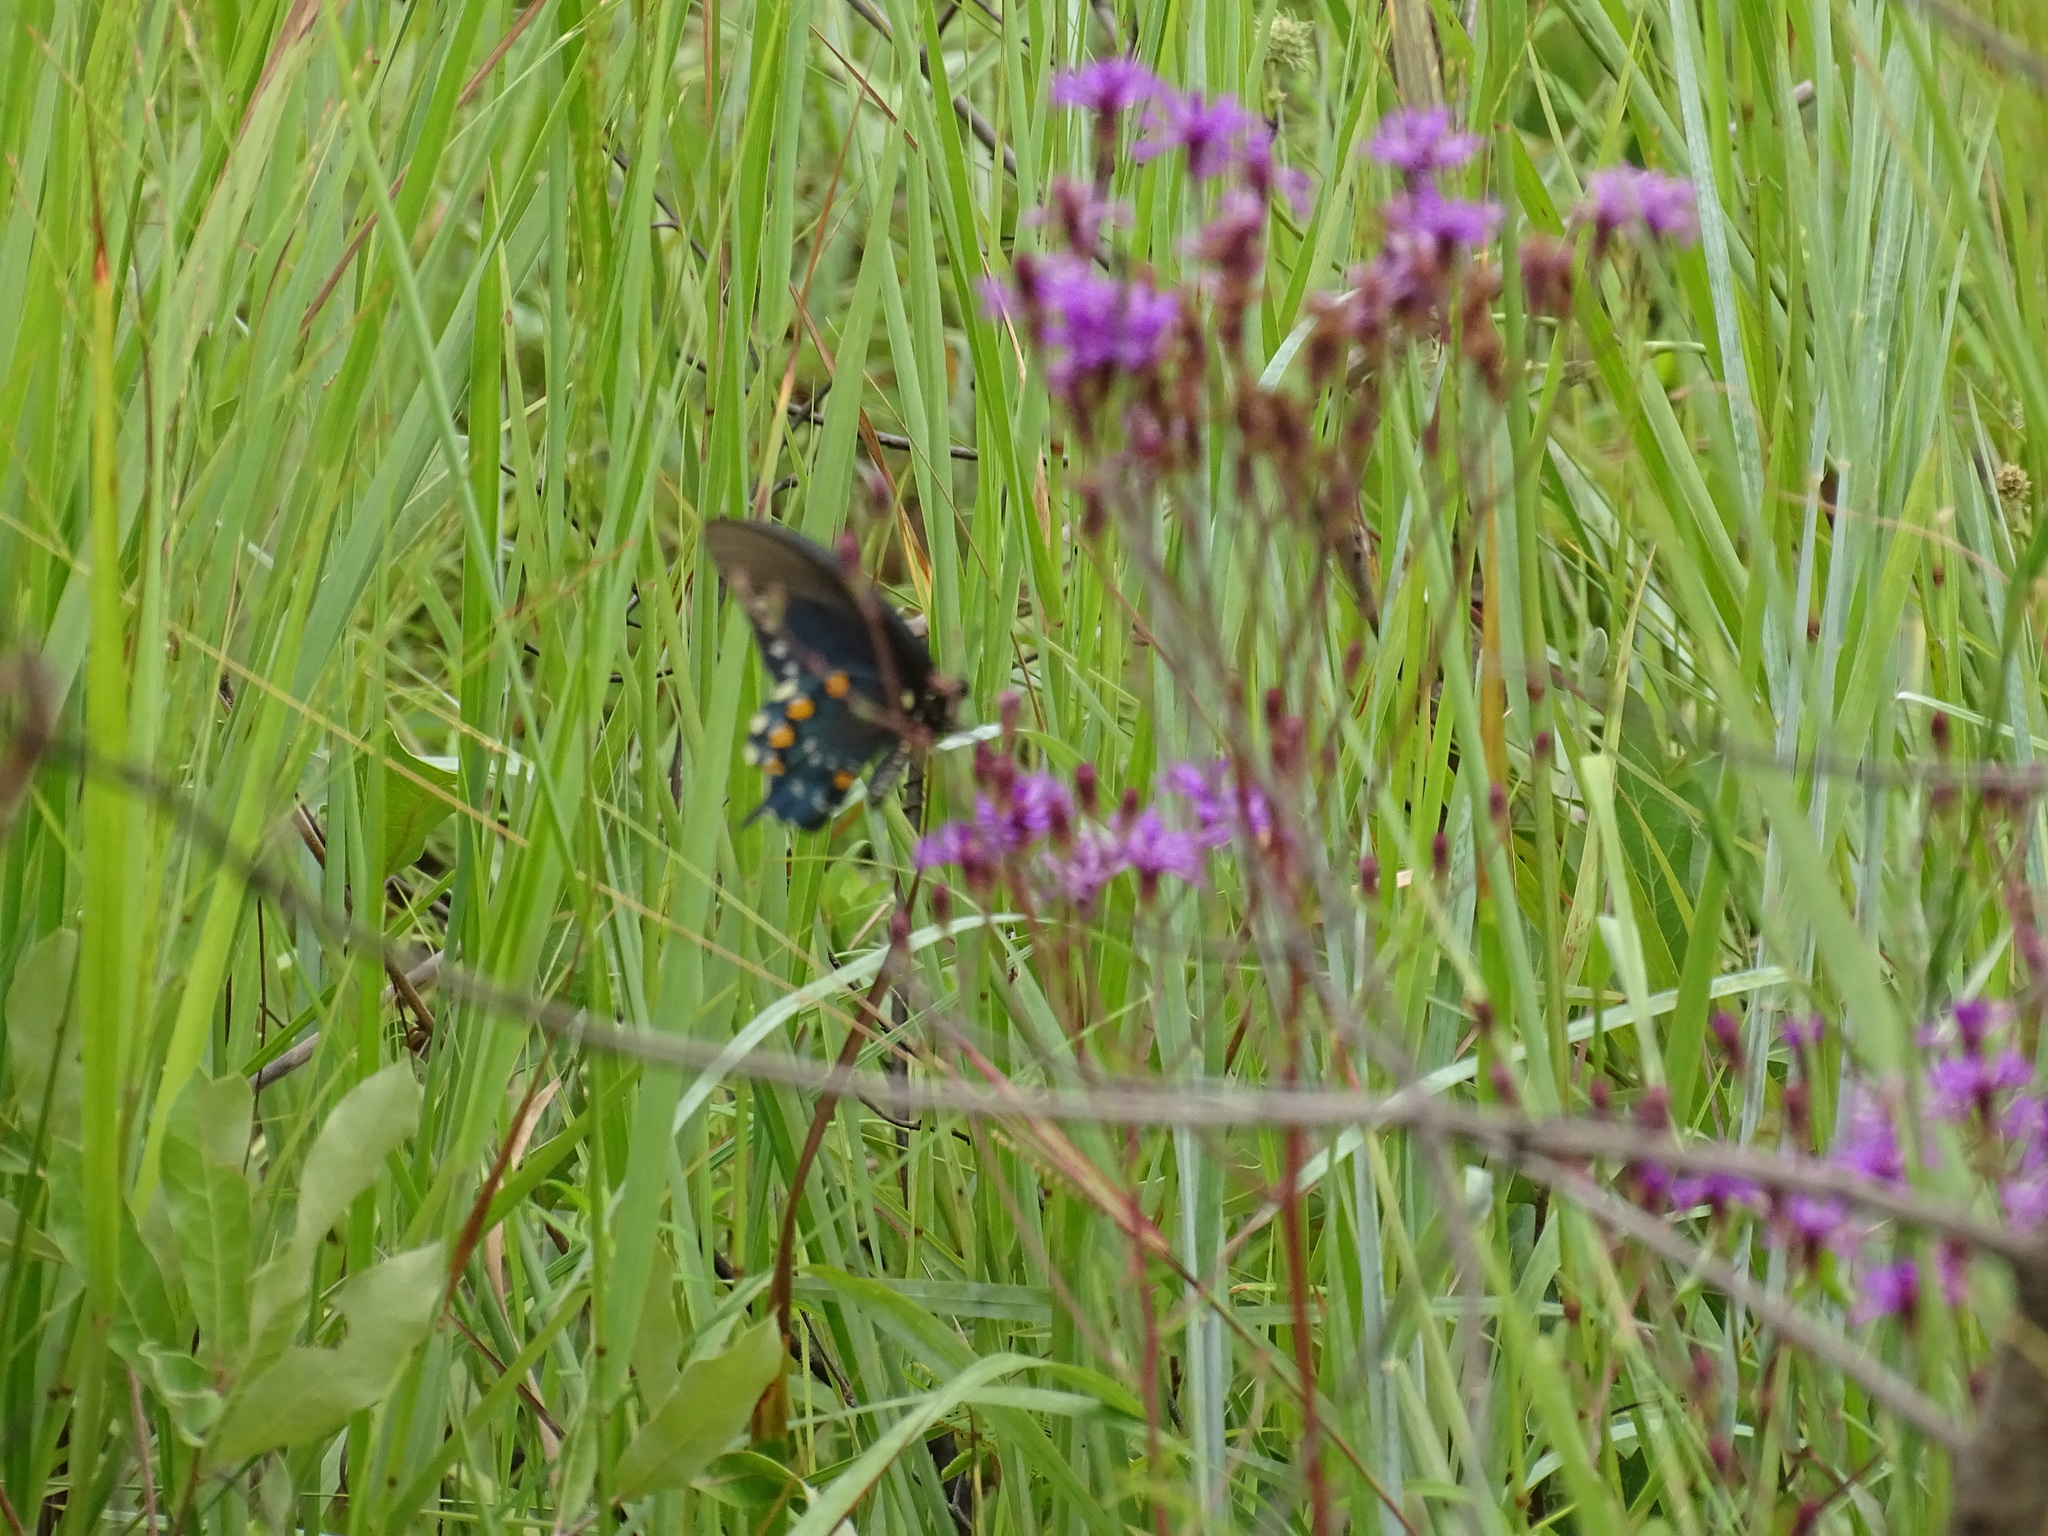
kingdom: Animalia
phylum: Arthropoda
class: Insecta
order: Lepidoptera
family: Papilionidae
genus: Battus
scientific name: Battus philenor
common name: Pipevine swallowtail
